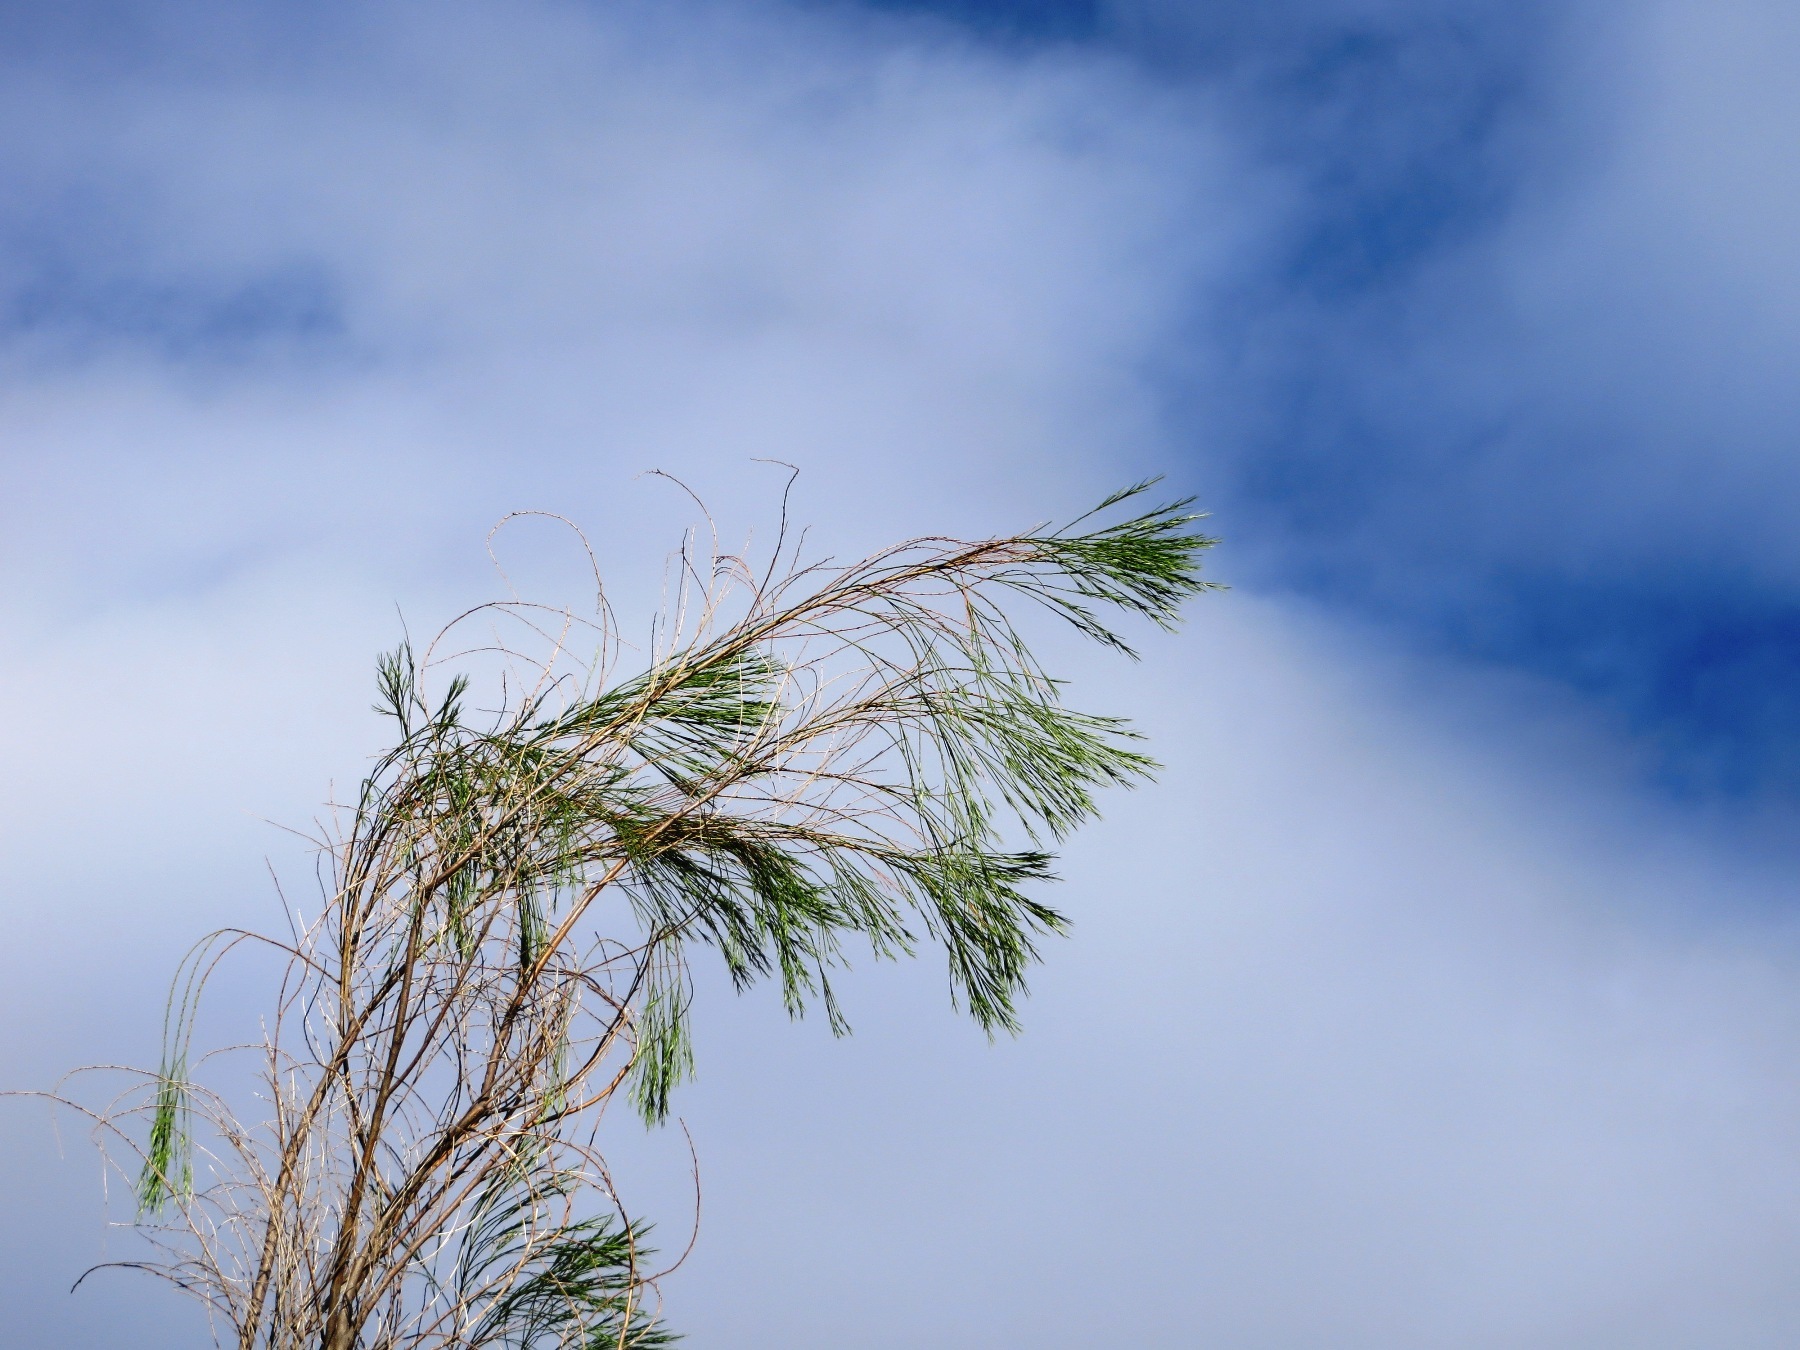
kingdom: Plantae
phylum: Tracheophyta
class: Magnoliopsida
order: Fabales
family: Fabaceae
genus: Psoralea
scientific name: Psoralea gigantea
